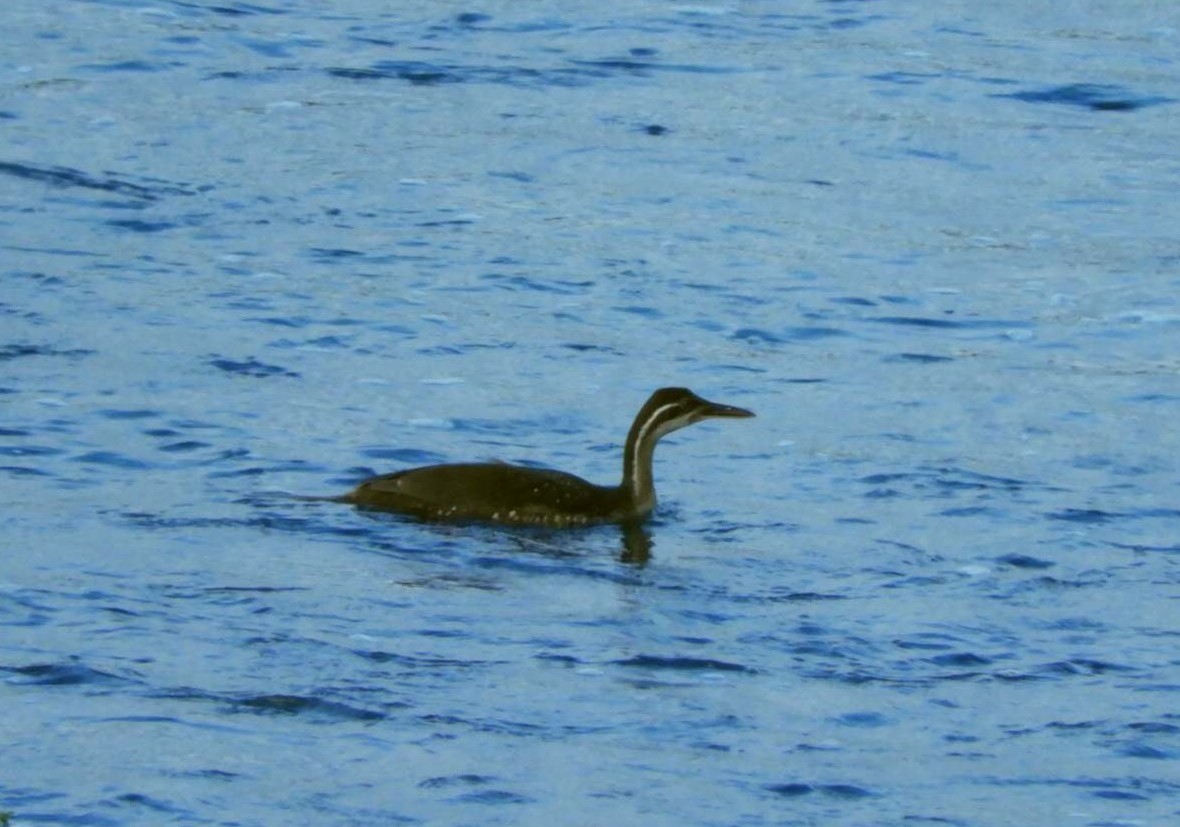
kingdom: Animalia
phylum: Chordata
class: Aves
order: Gruiformes
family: Heliornithidae
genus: Podica
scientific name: Podica senegalensis
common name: African finfoot
